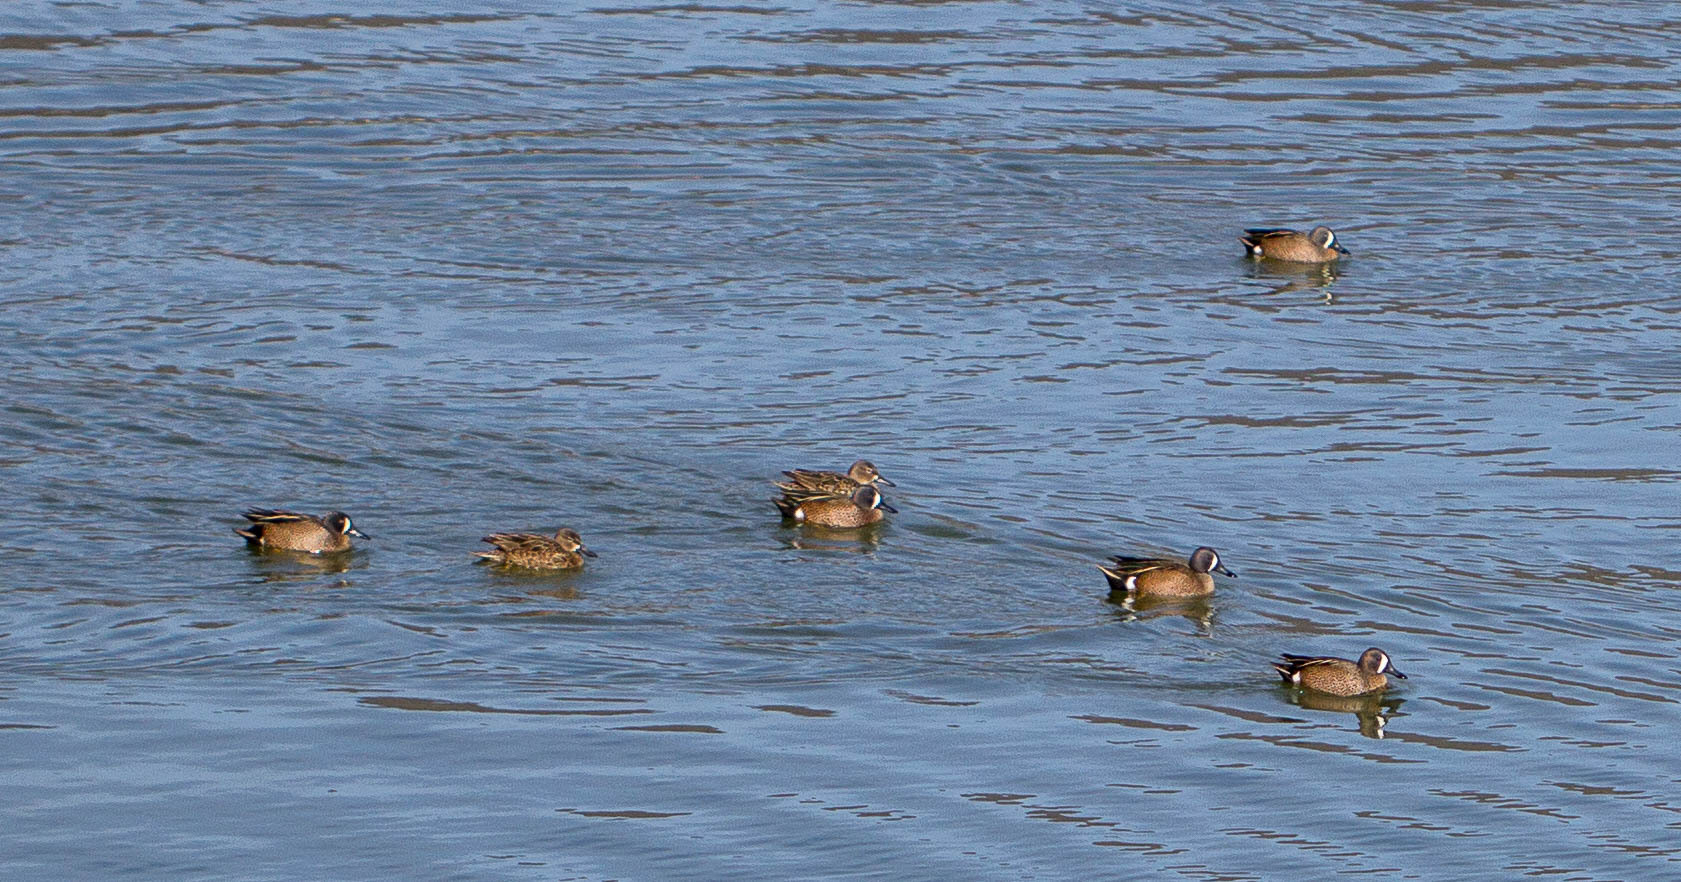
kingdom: Animalia
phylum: Chordata
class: Aves
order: Anseriformes
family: Anatidae
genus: Spatula
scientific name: Spatula discors
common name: Blue-winged teal
